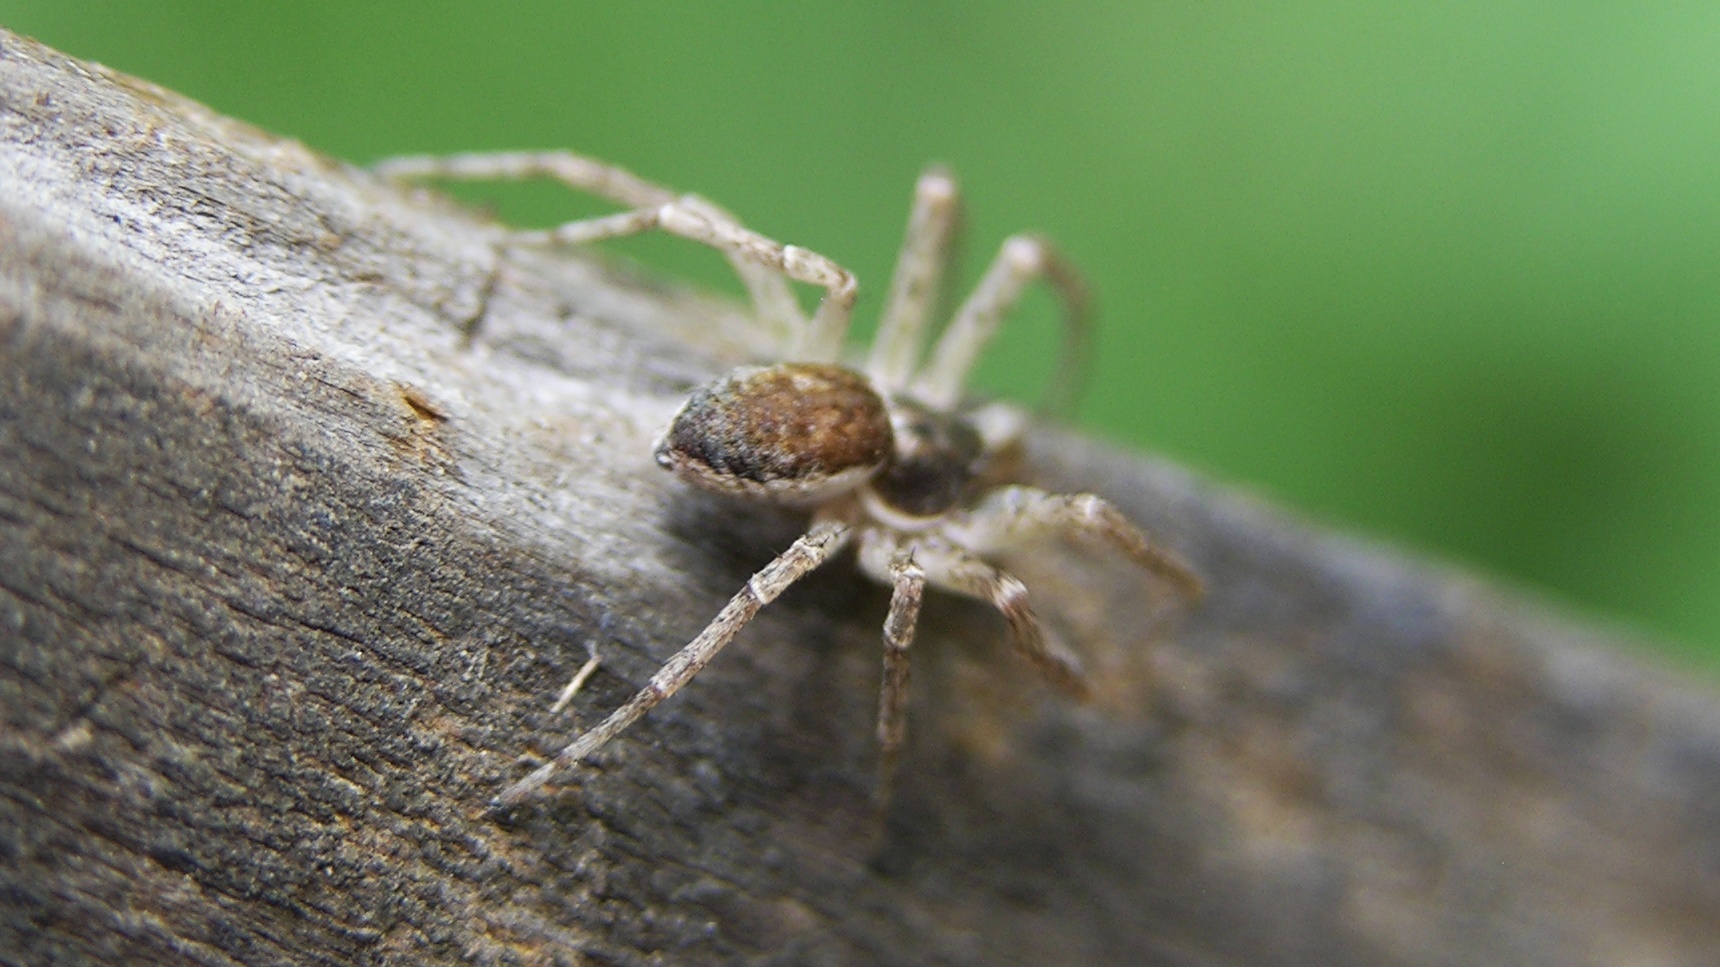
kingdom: Animalia
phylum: Arthropoda
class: Arachnida
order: Araneae
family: Philodromidae
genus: Philodromus
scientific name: Philodromus dispar
